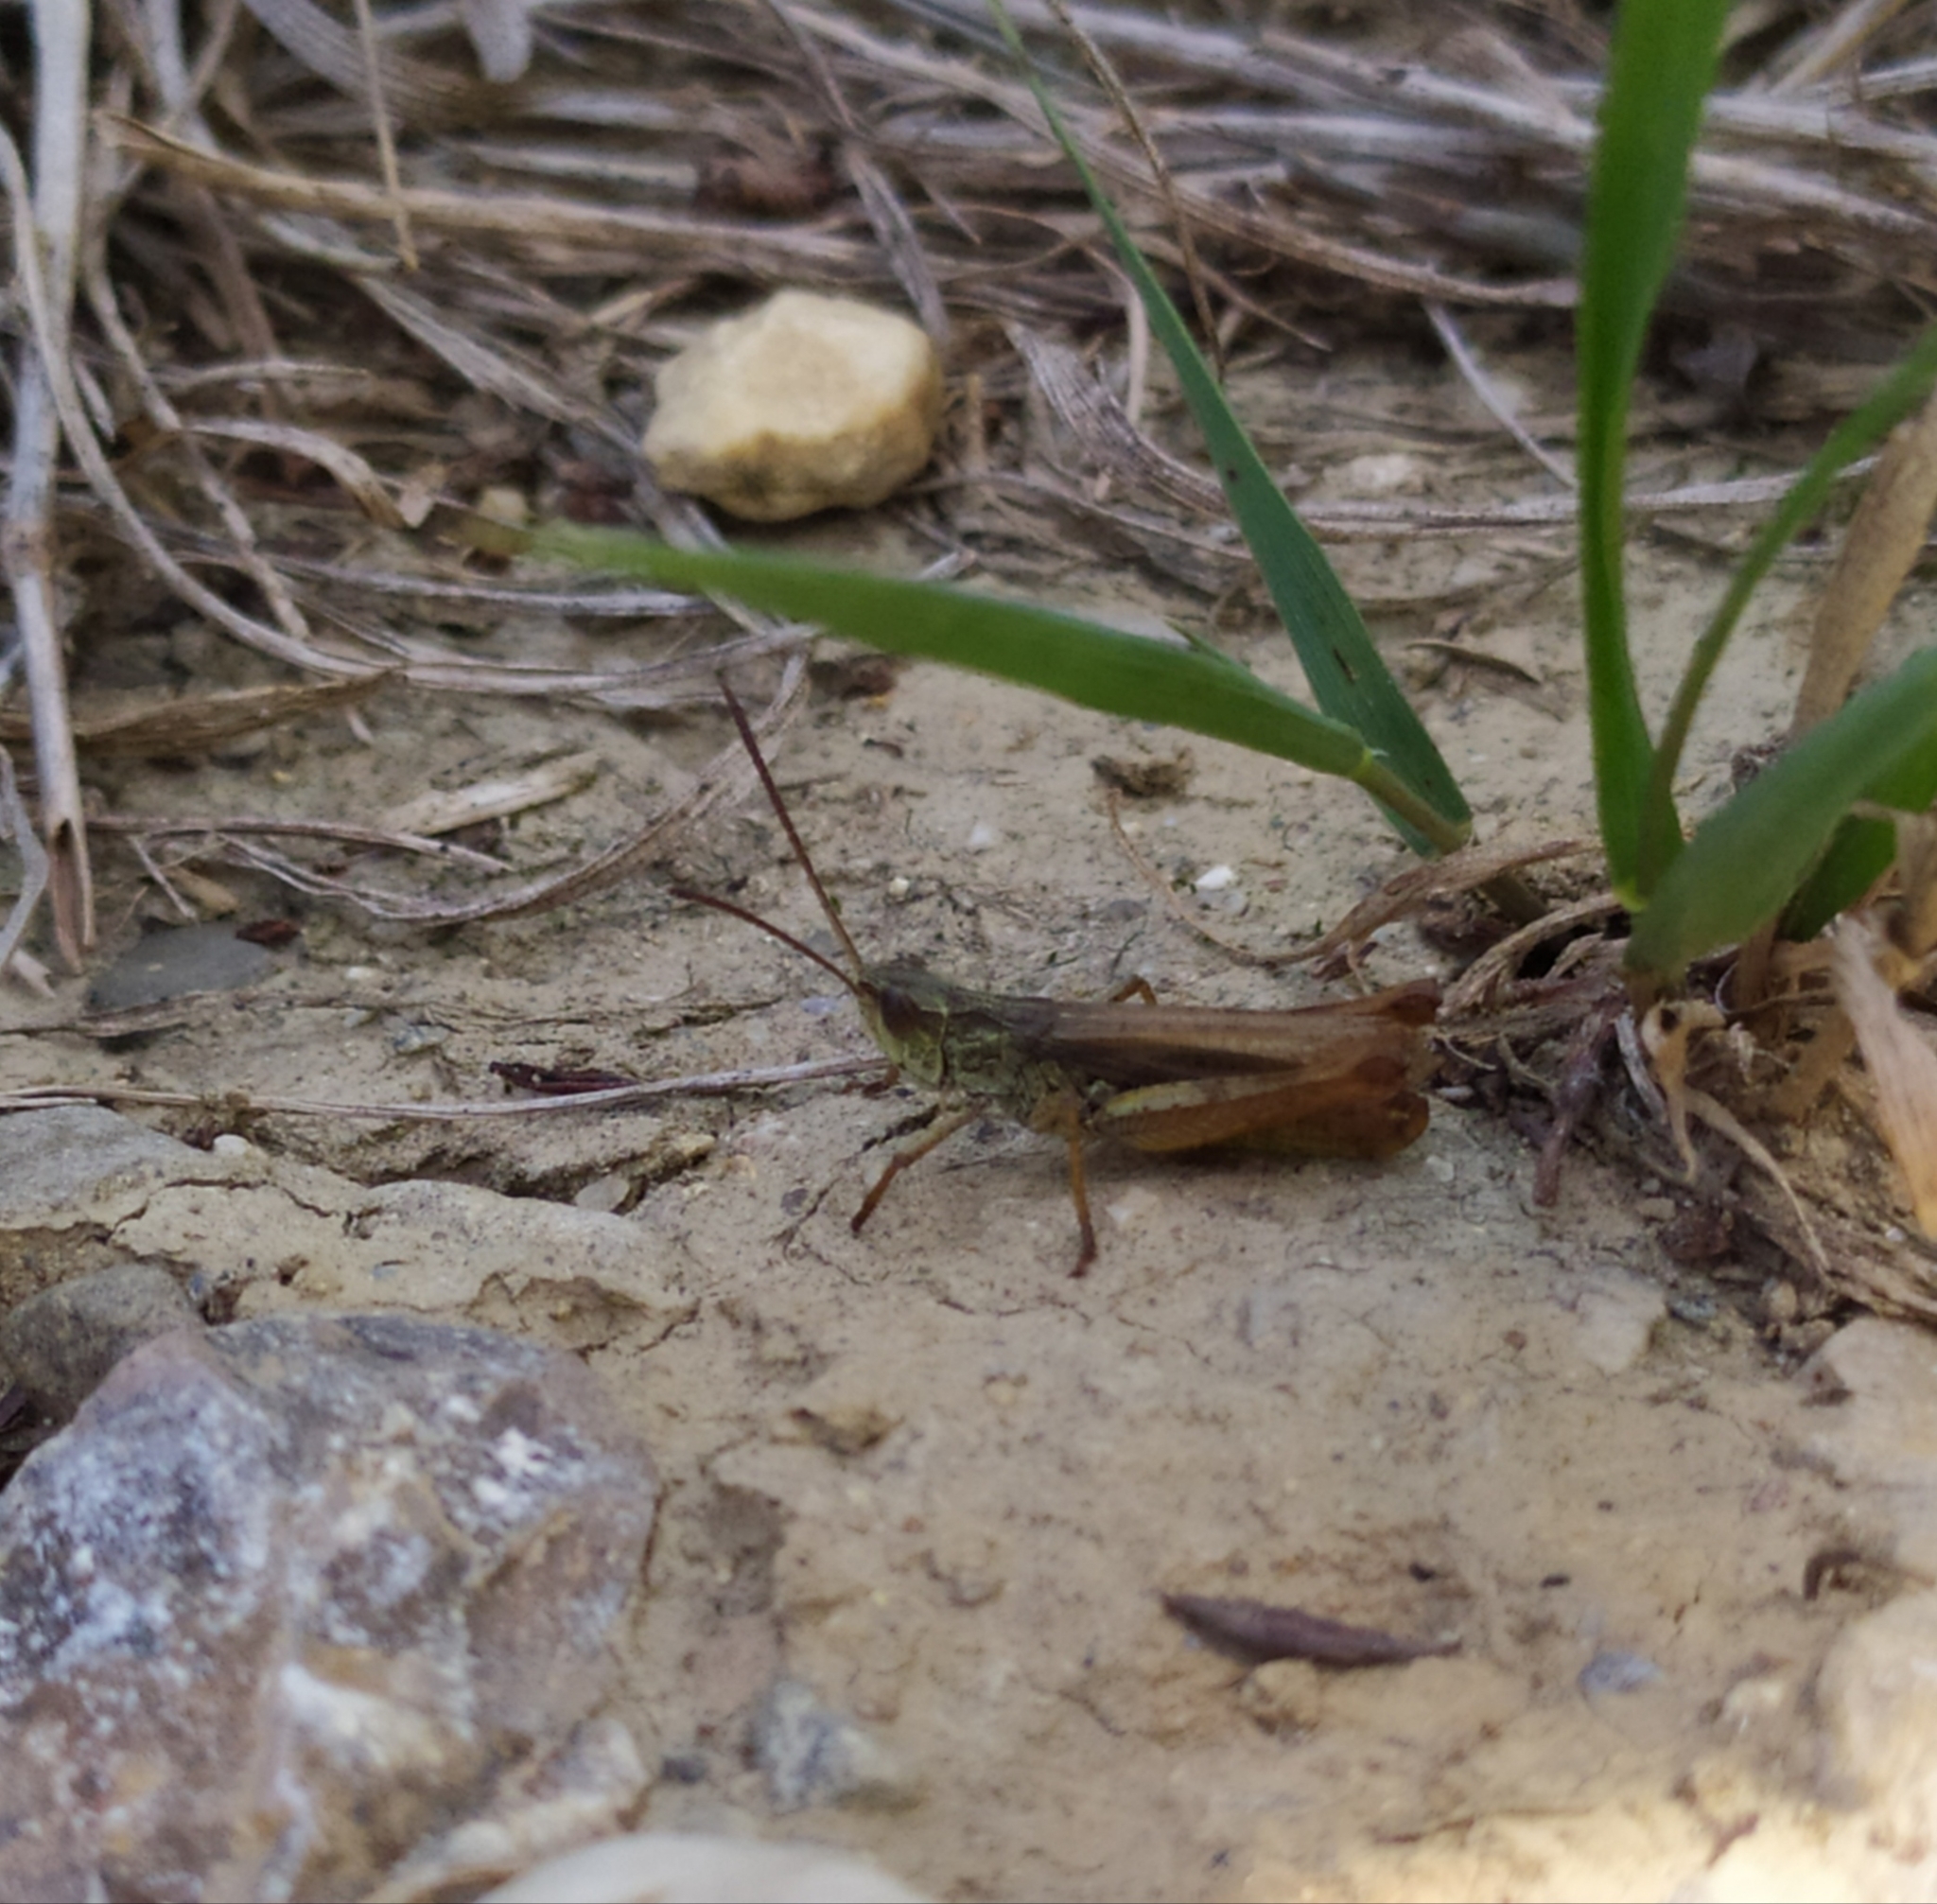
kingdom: Animalia
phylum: Arthropoda
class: Insecta
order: Orthoptera
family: Acrididae
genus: Chorthippus
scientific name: Chorthippus apricarius
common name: Upland field grasshopper
